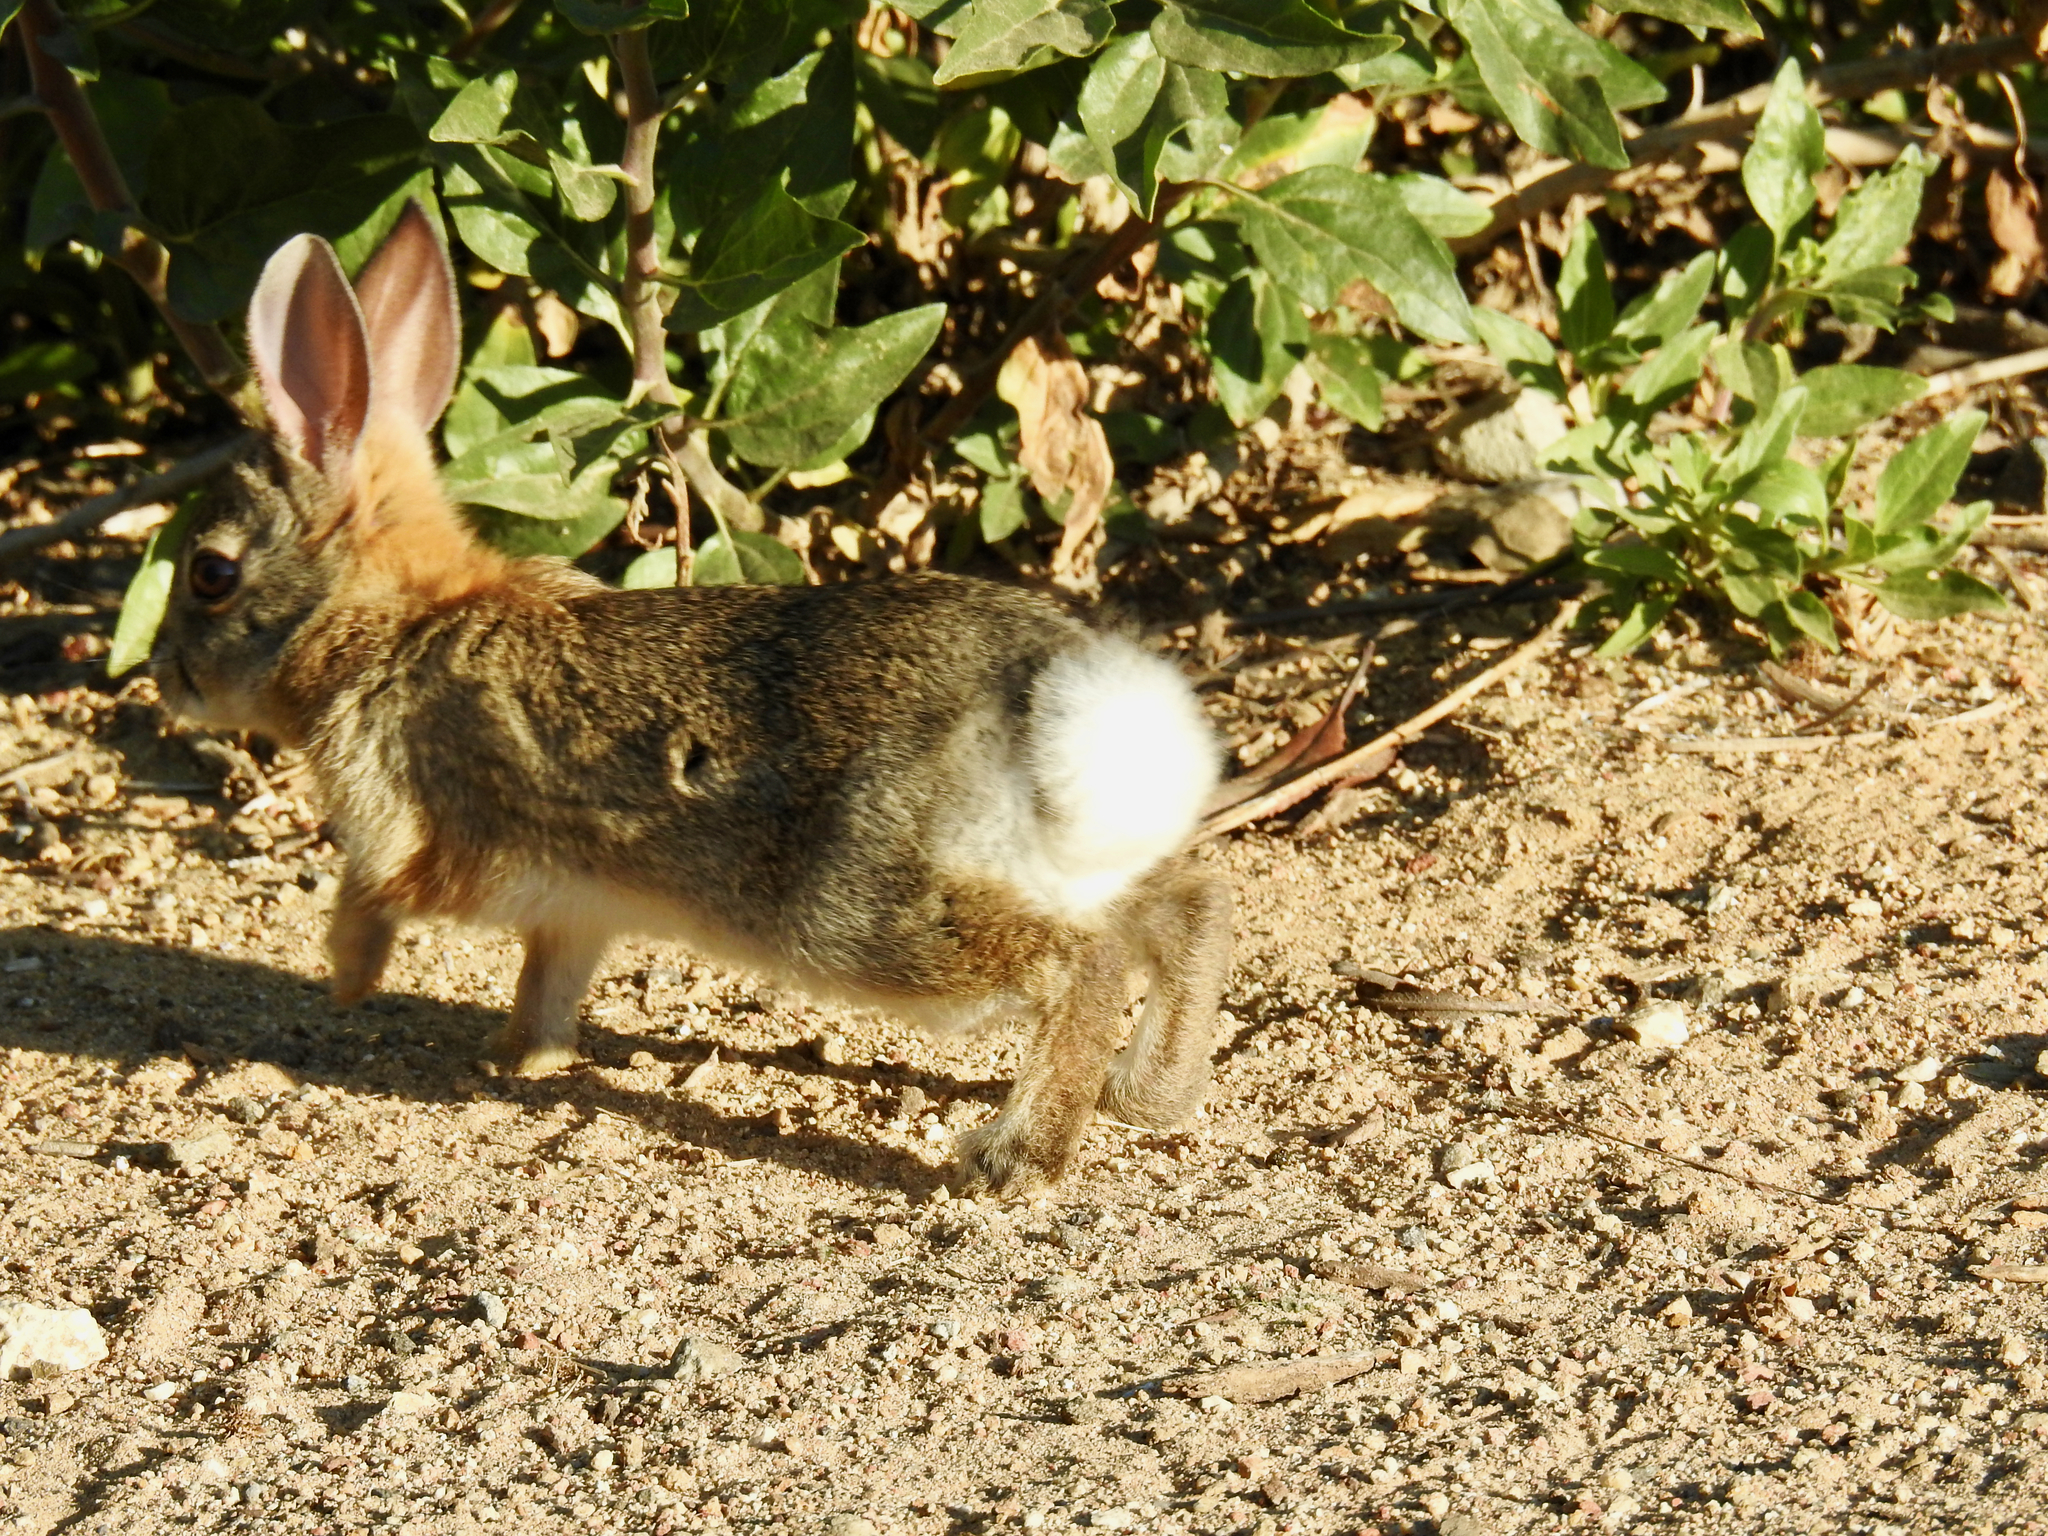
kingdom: Animalia
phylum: Chordata
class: Mammalia
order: Lagomorpha
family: Leporidae
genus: Sylvilagus
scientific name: Sylvilagus audubonii
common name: Desert cottontail
